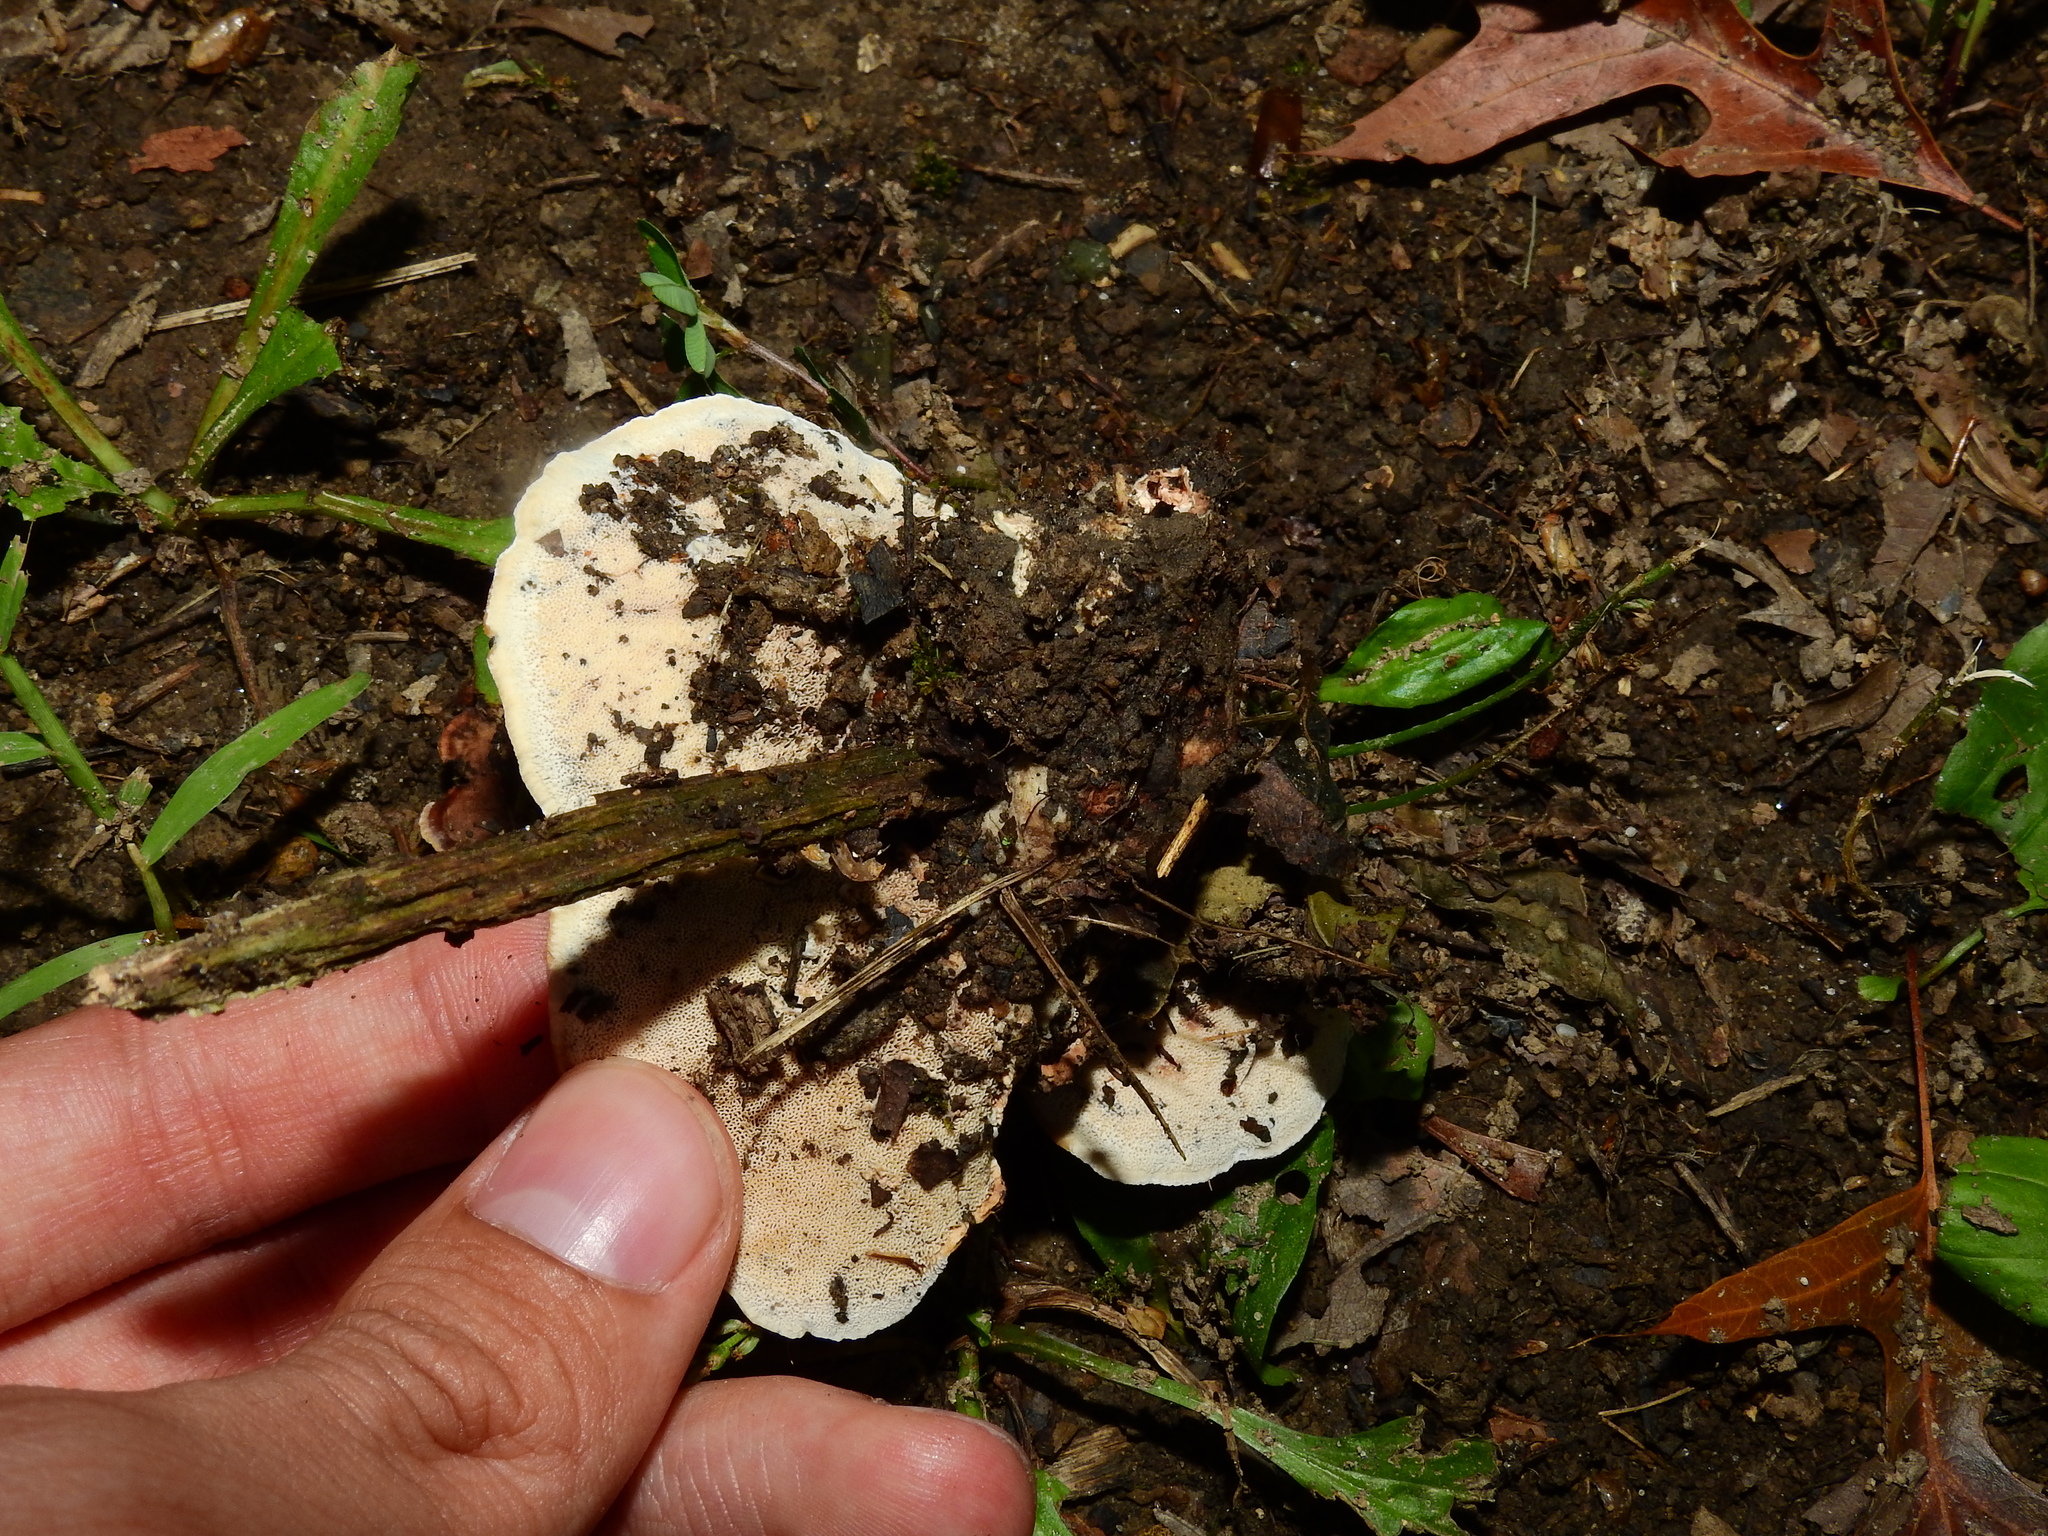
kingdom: Fungi
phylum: Basidiomycota
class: Agaricomycetes
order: Polyporales
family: Podoscyphaceae
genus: Abortiporus
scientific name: Abortiporus biennis
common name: Blushing rosette
